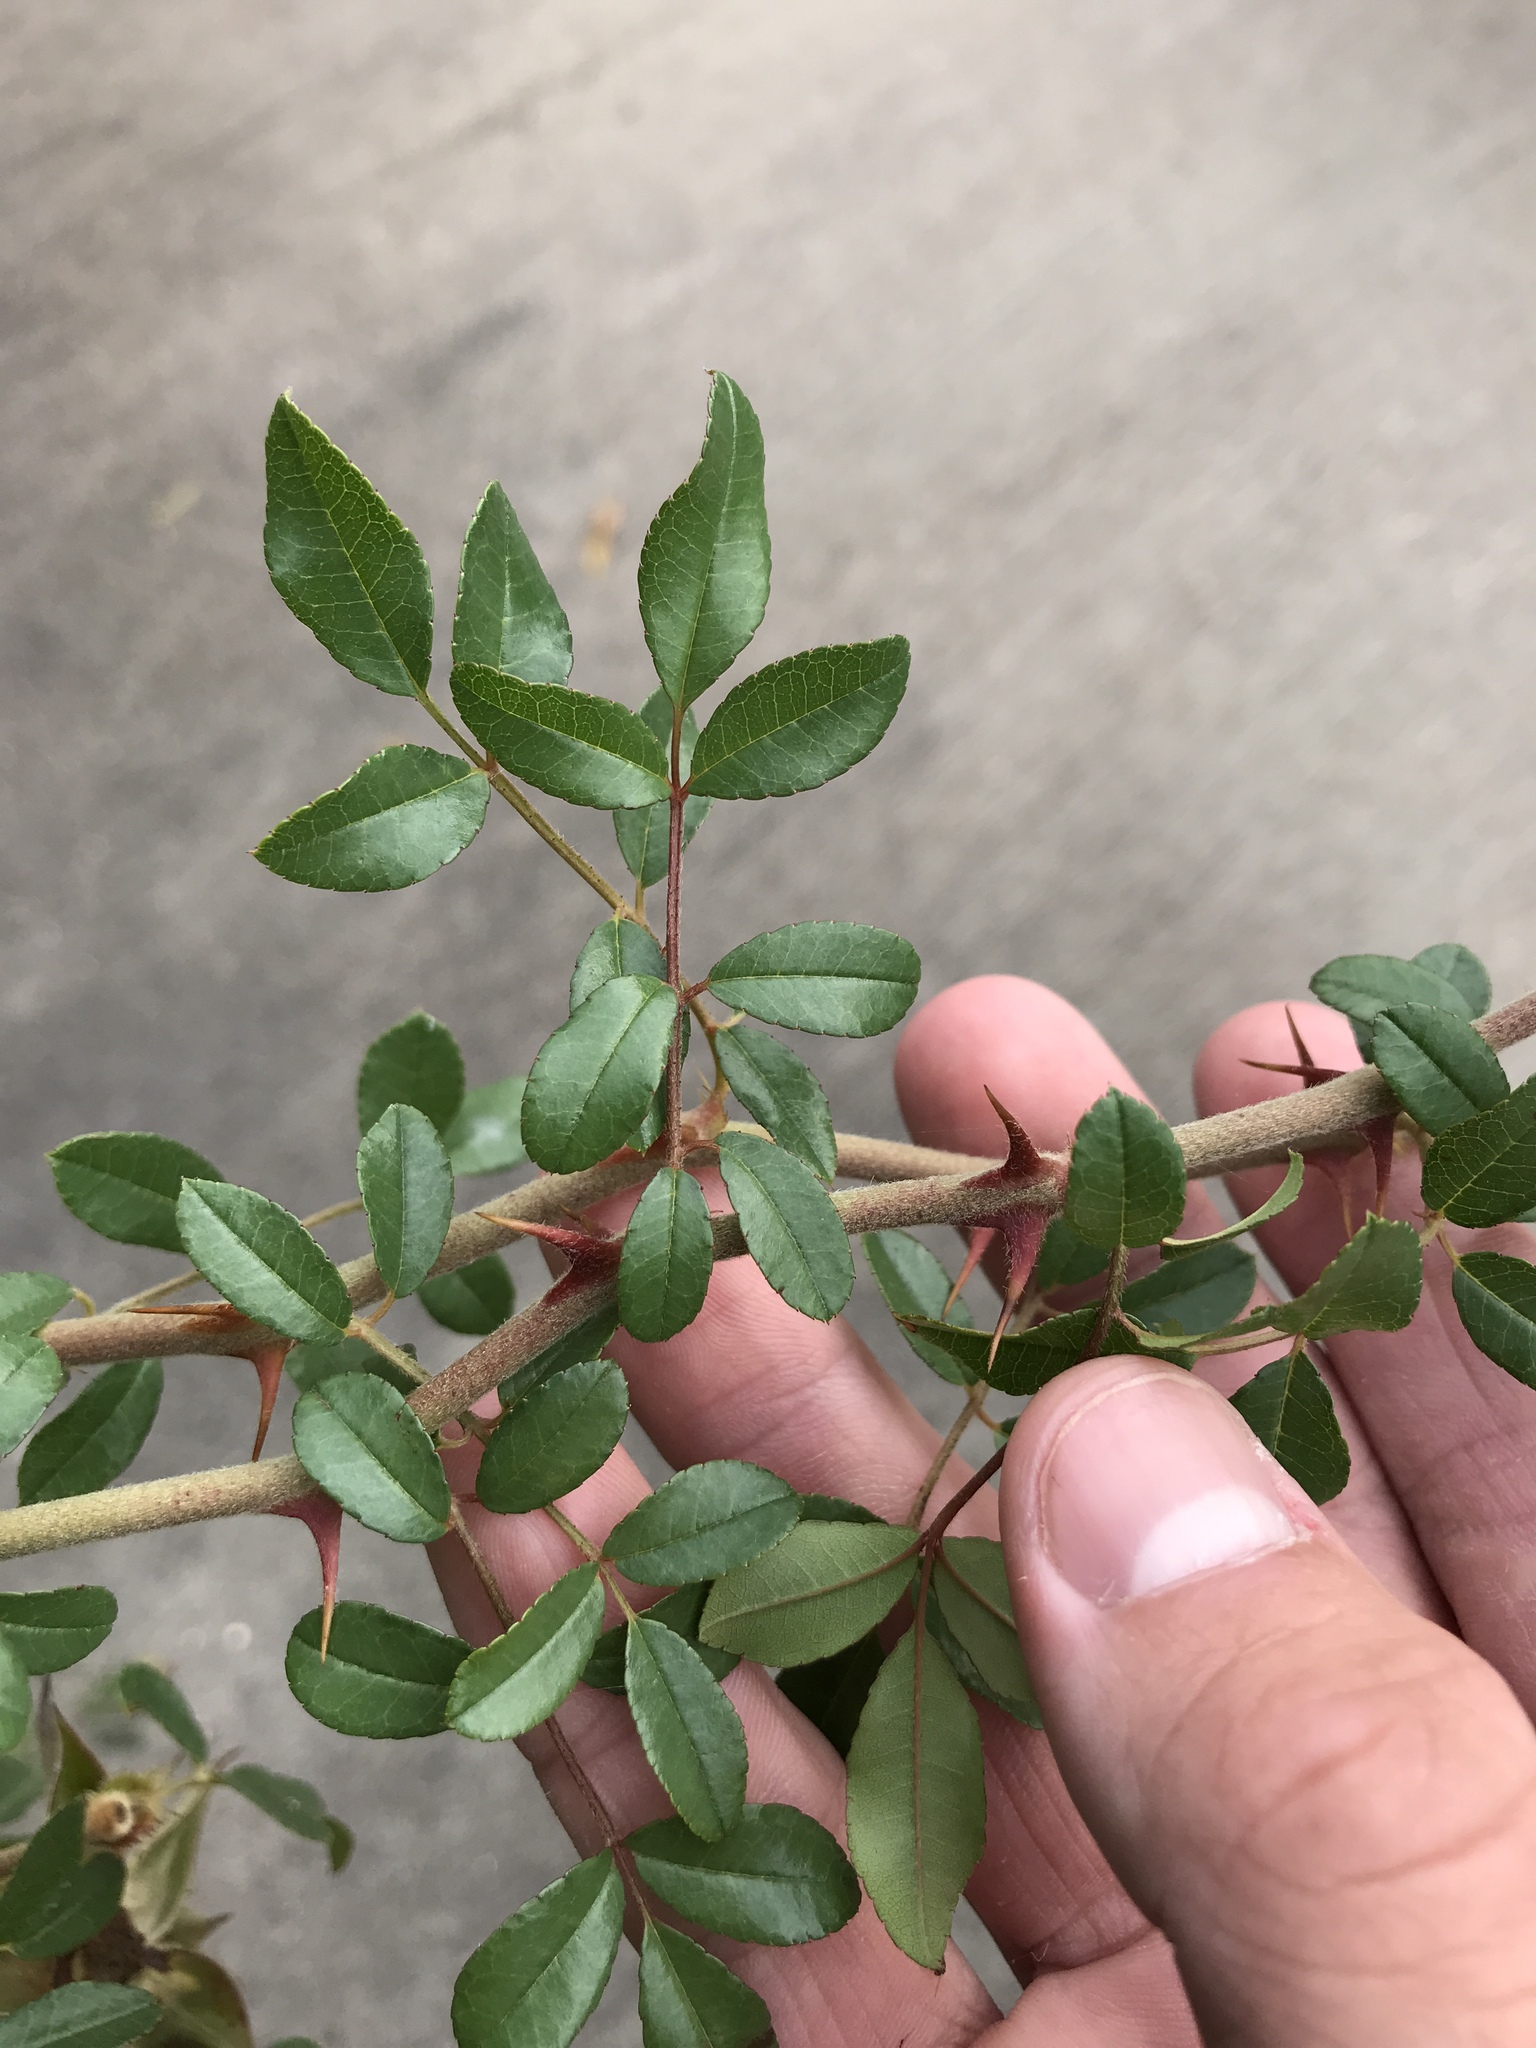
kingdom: Plantae
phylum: Tracheophyta
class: Magnoliopsida
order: Rosales
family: Rosaceae
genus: Rosa
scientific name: Rosa bracteata
